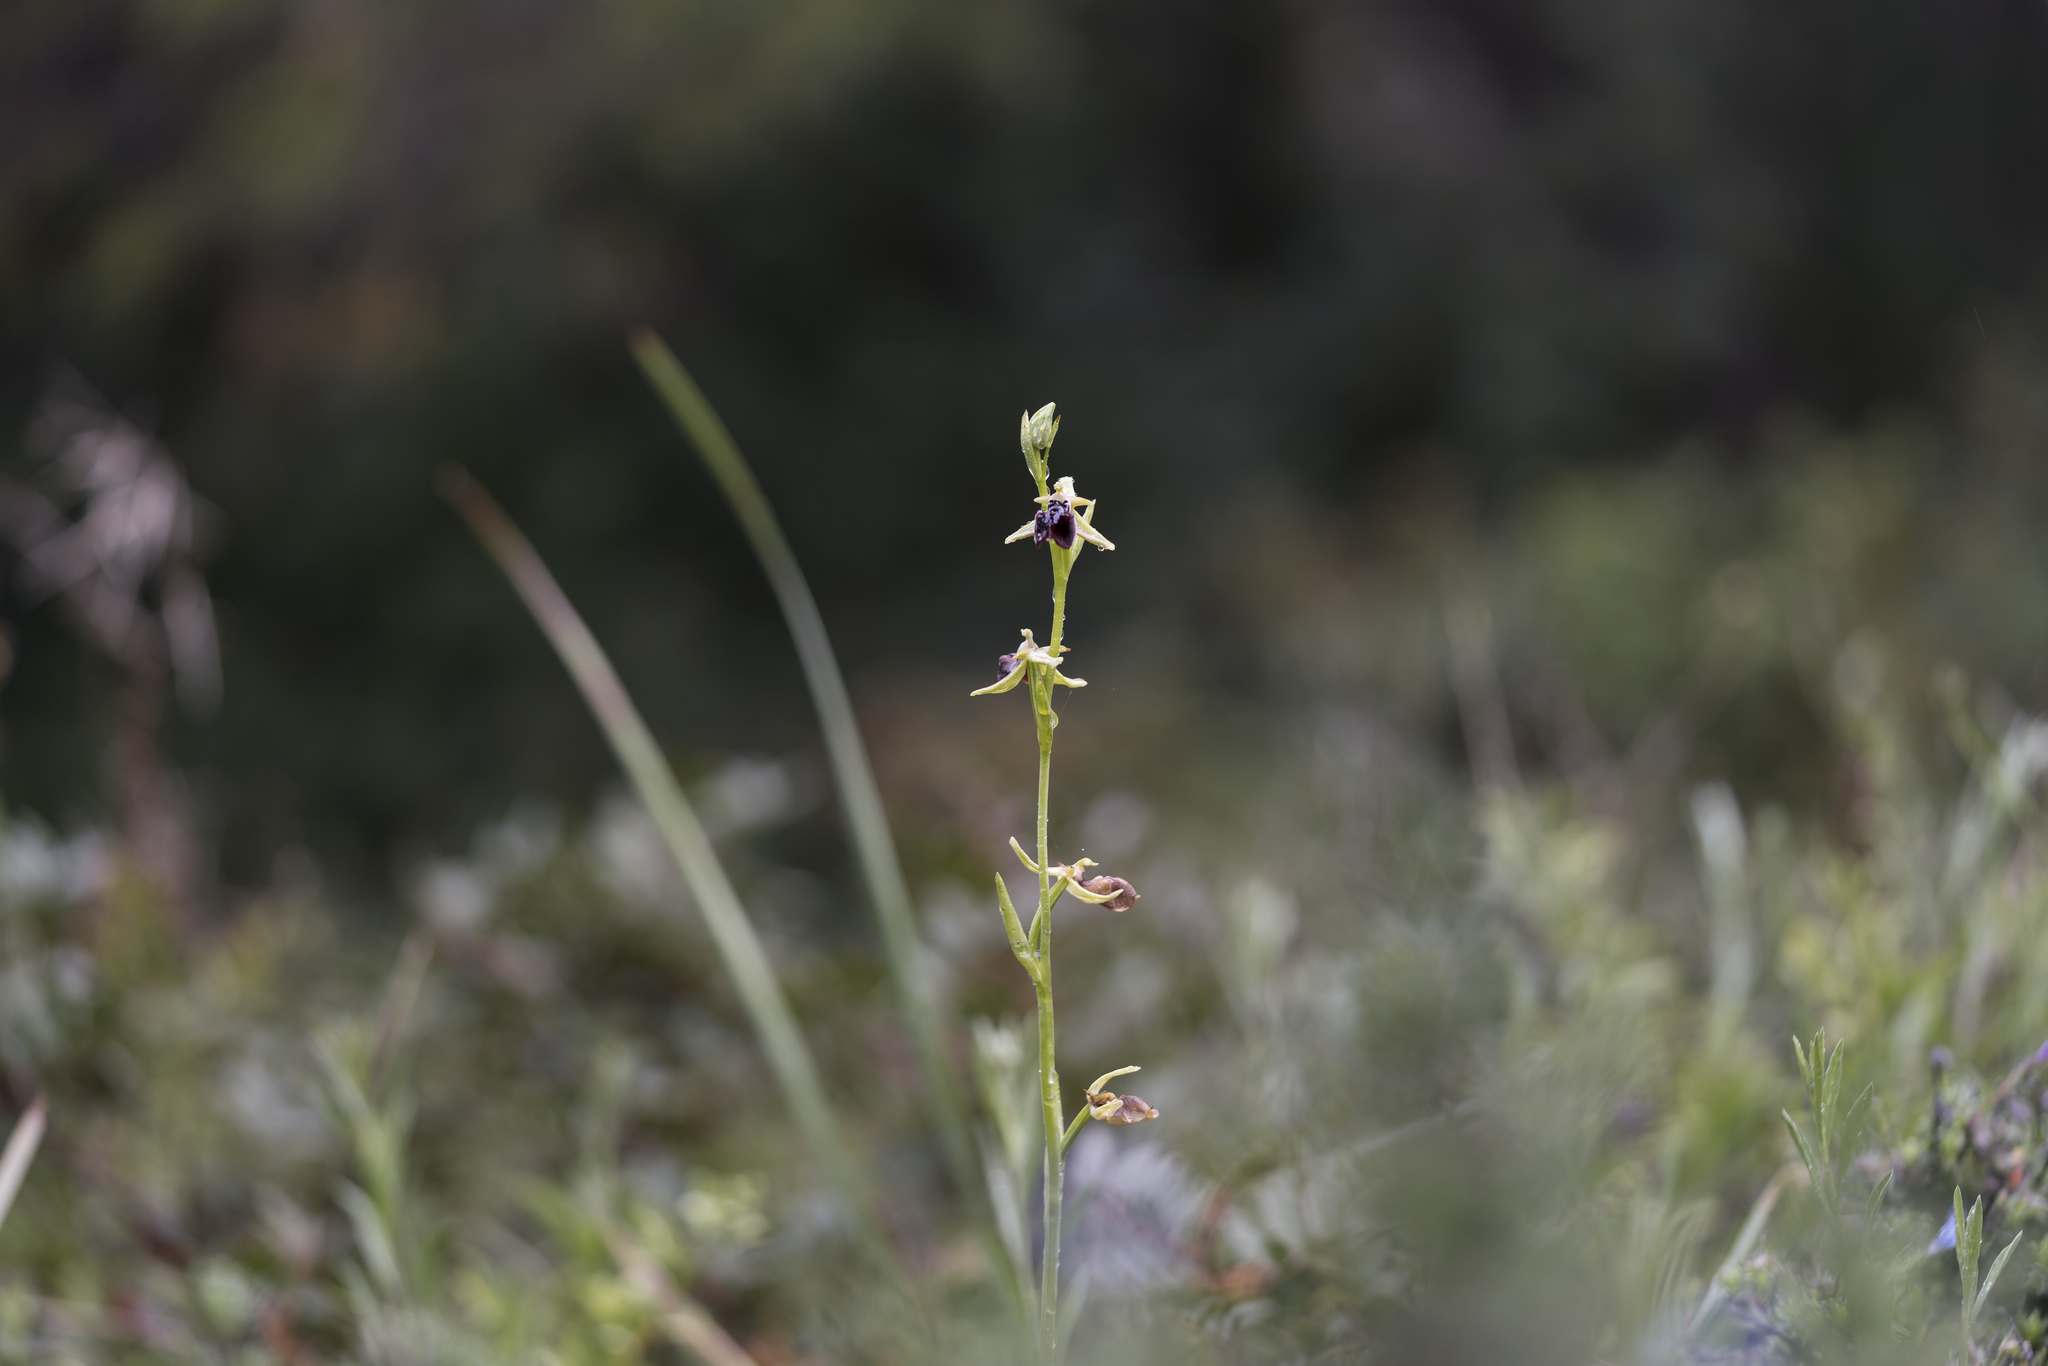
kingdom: Plantae
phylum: Tracheophyta
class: Liliopsida
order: Asparagales
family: Orchidaceae
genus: Ophrys
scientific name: Ophrys sphegodes
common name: Early spider-orchid
